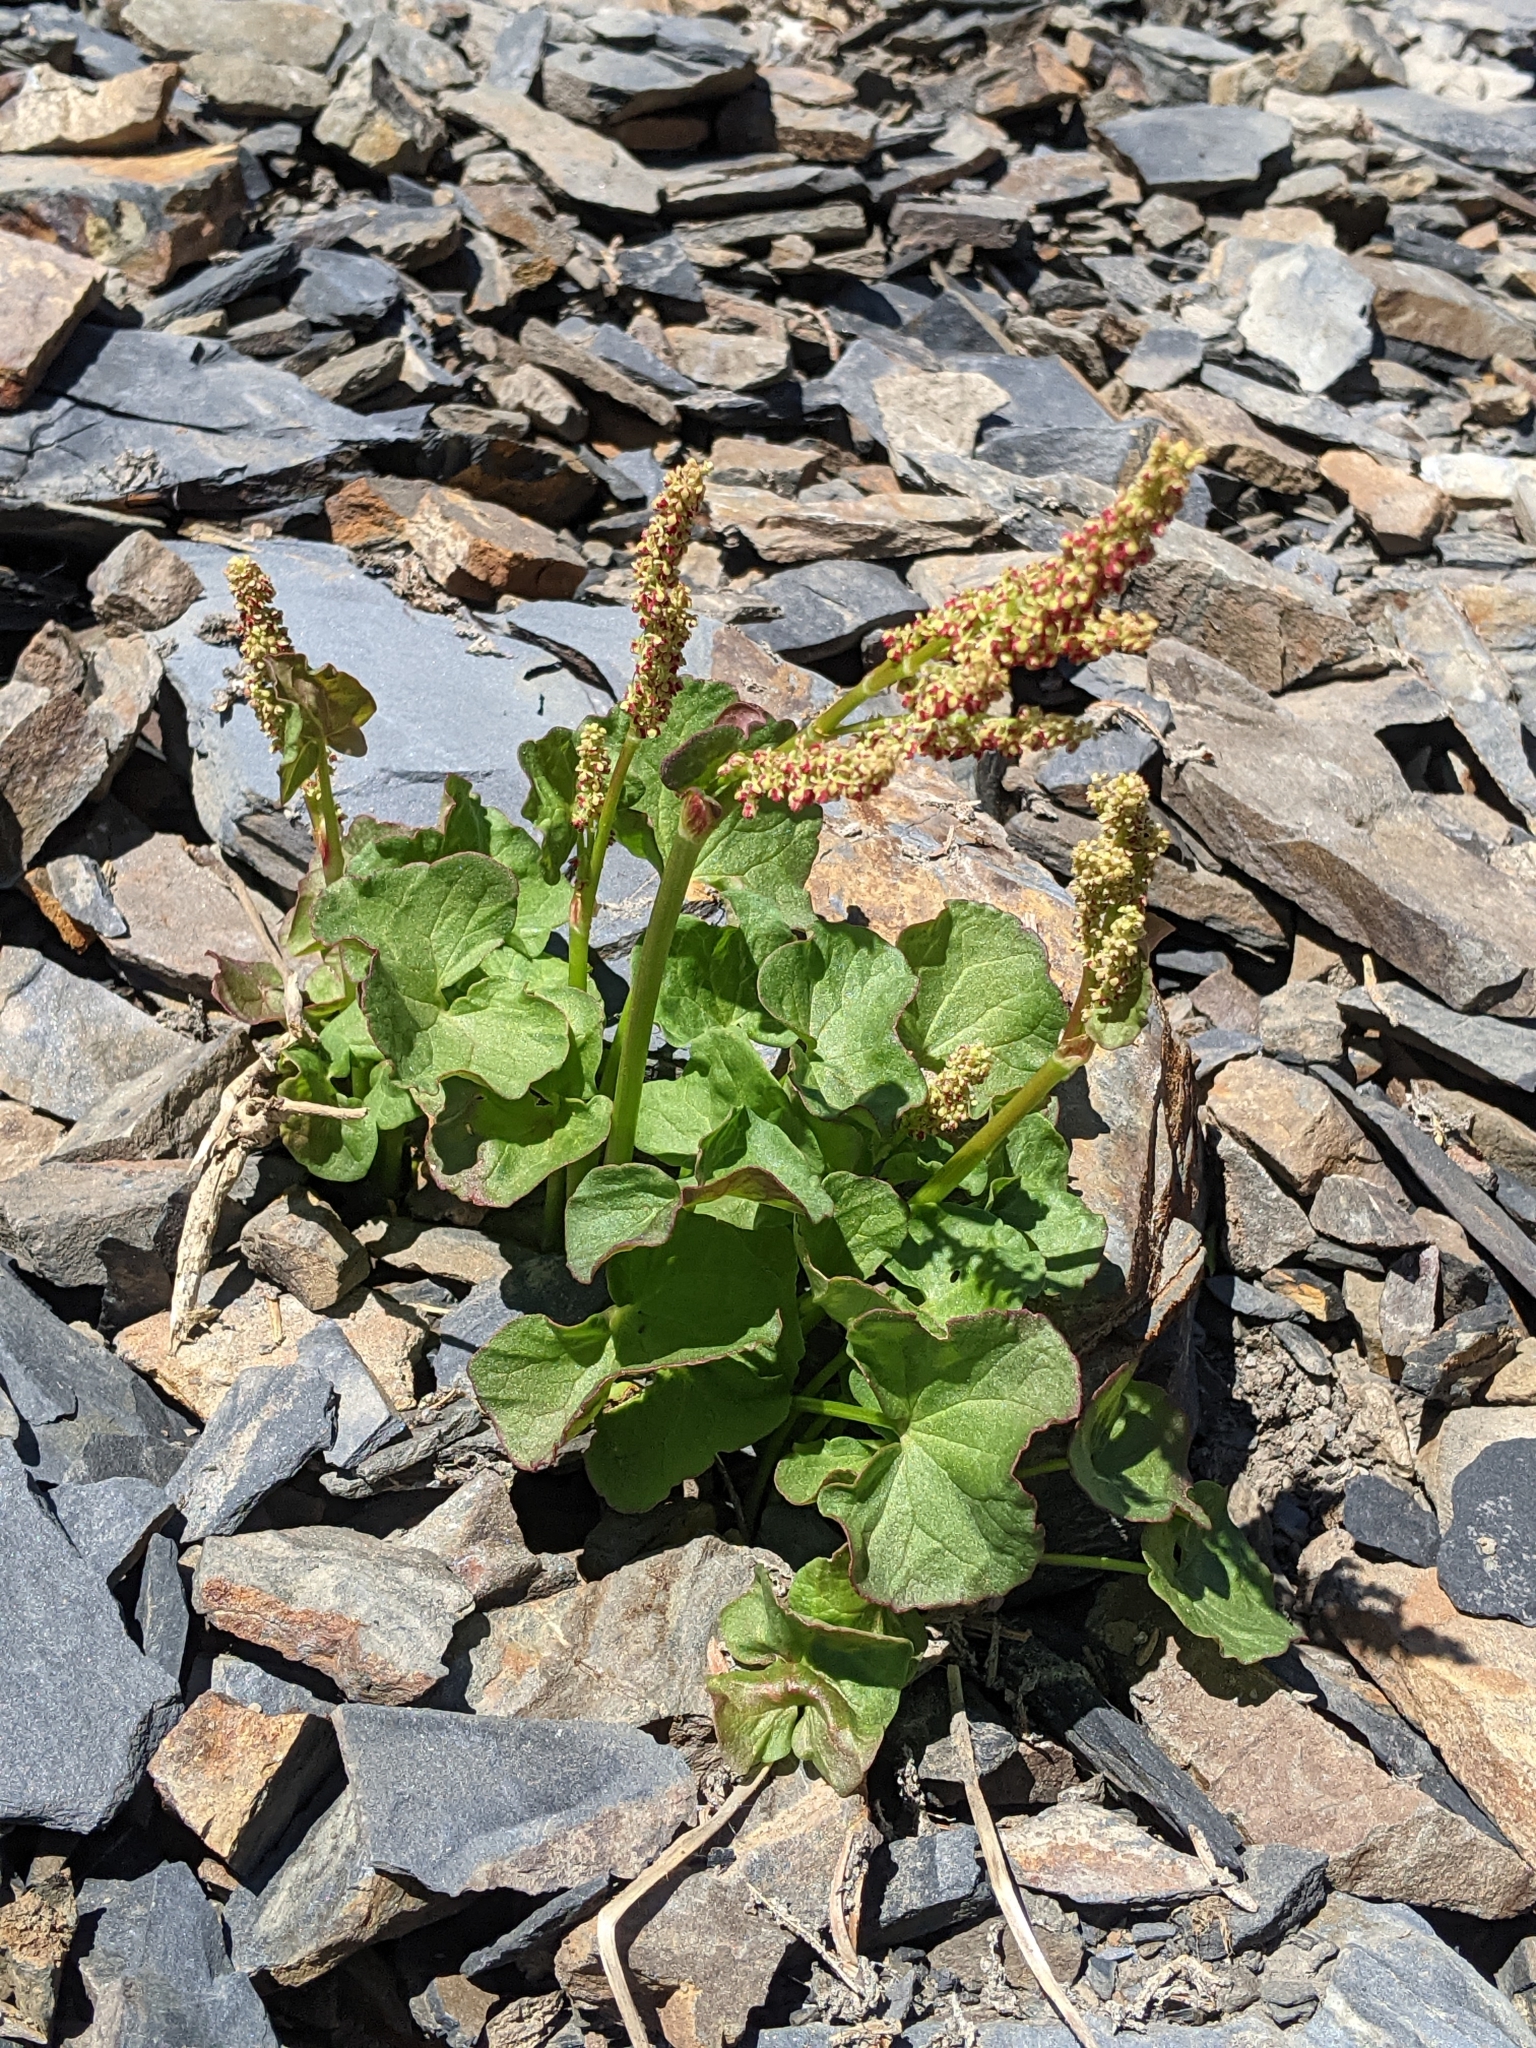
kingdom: Plantae
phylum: Tracheophyta
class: Magnoliopsida
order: Caryophyllales
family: Polygonaceae
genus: Oxyria
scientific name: Oxyria digyna
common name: Alpine mountain-sorrel
